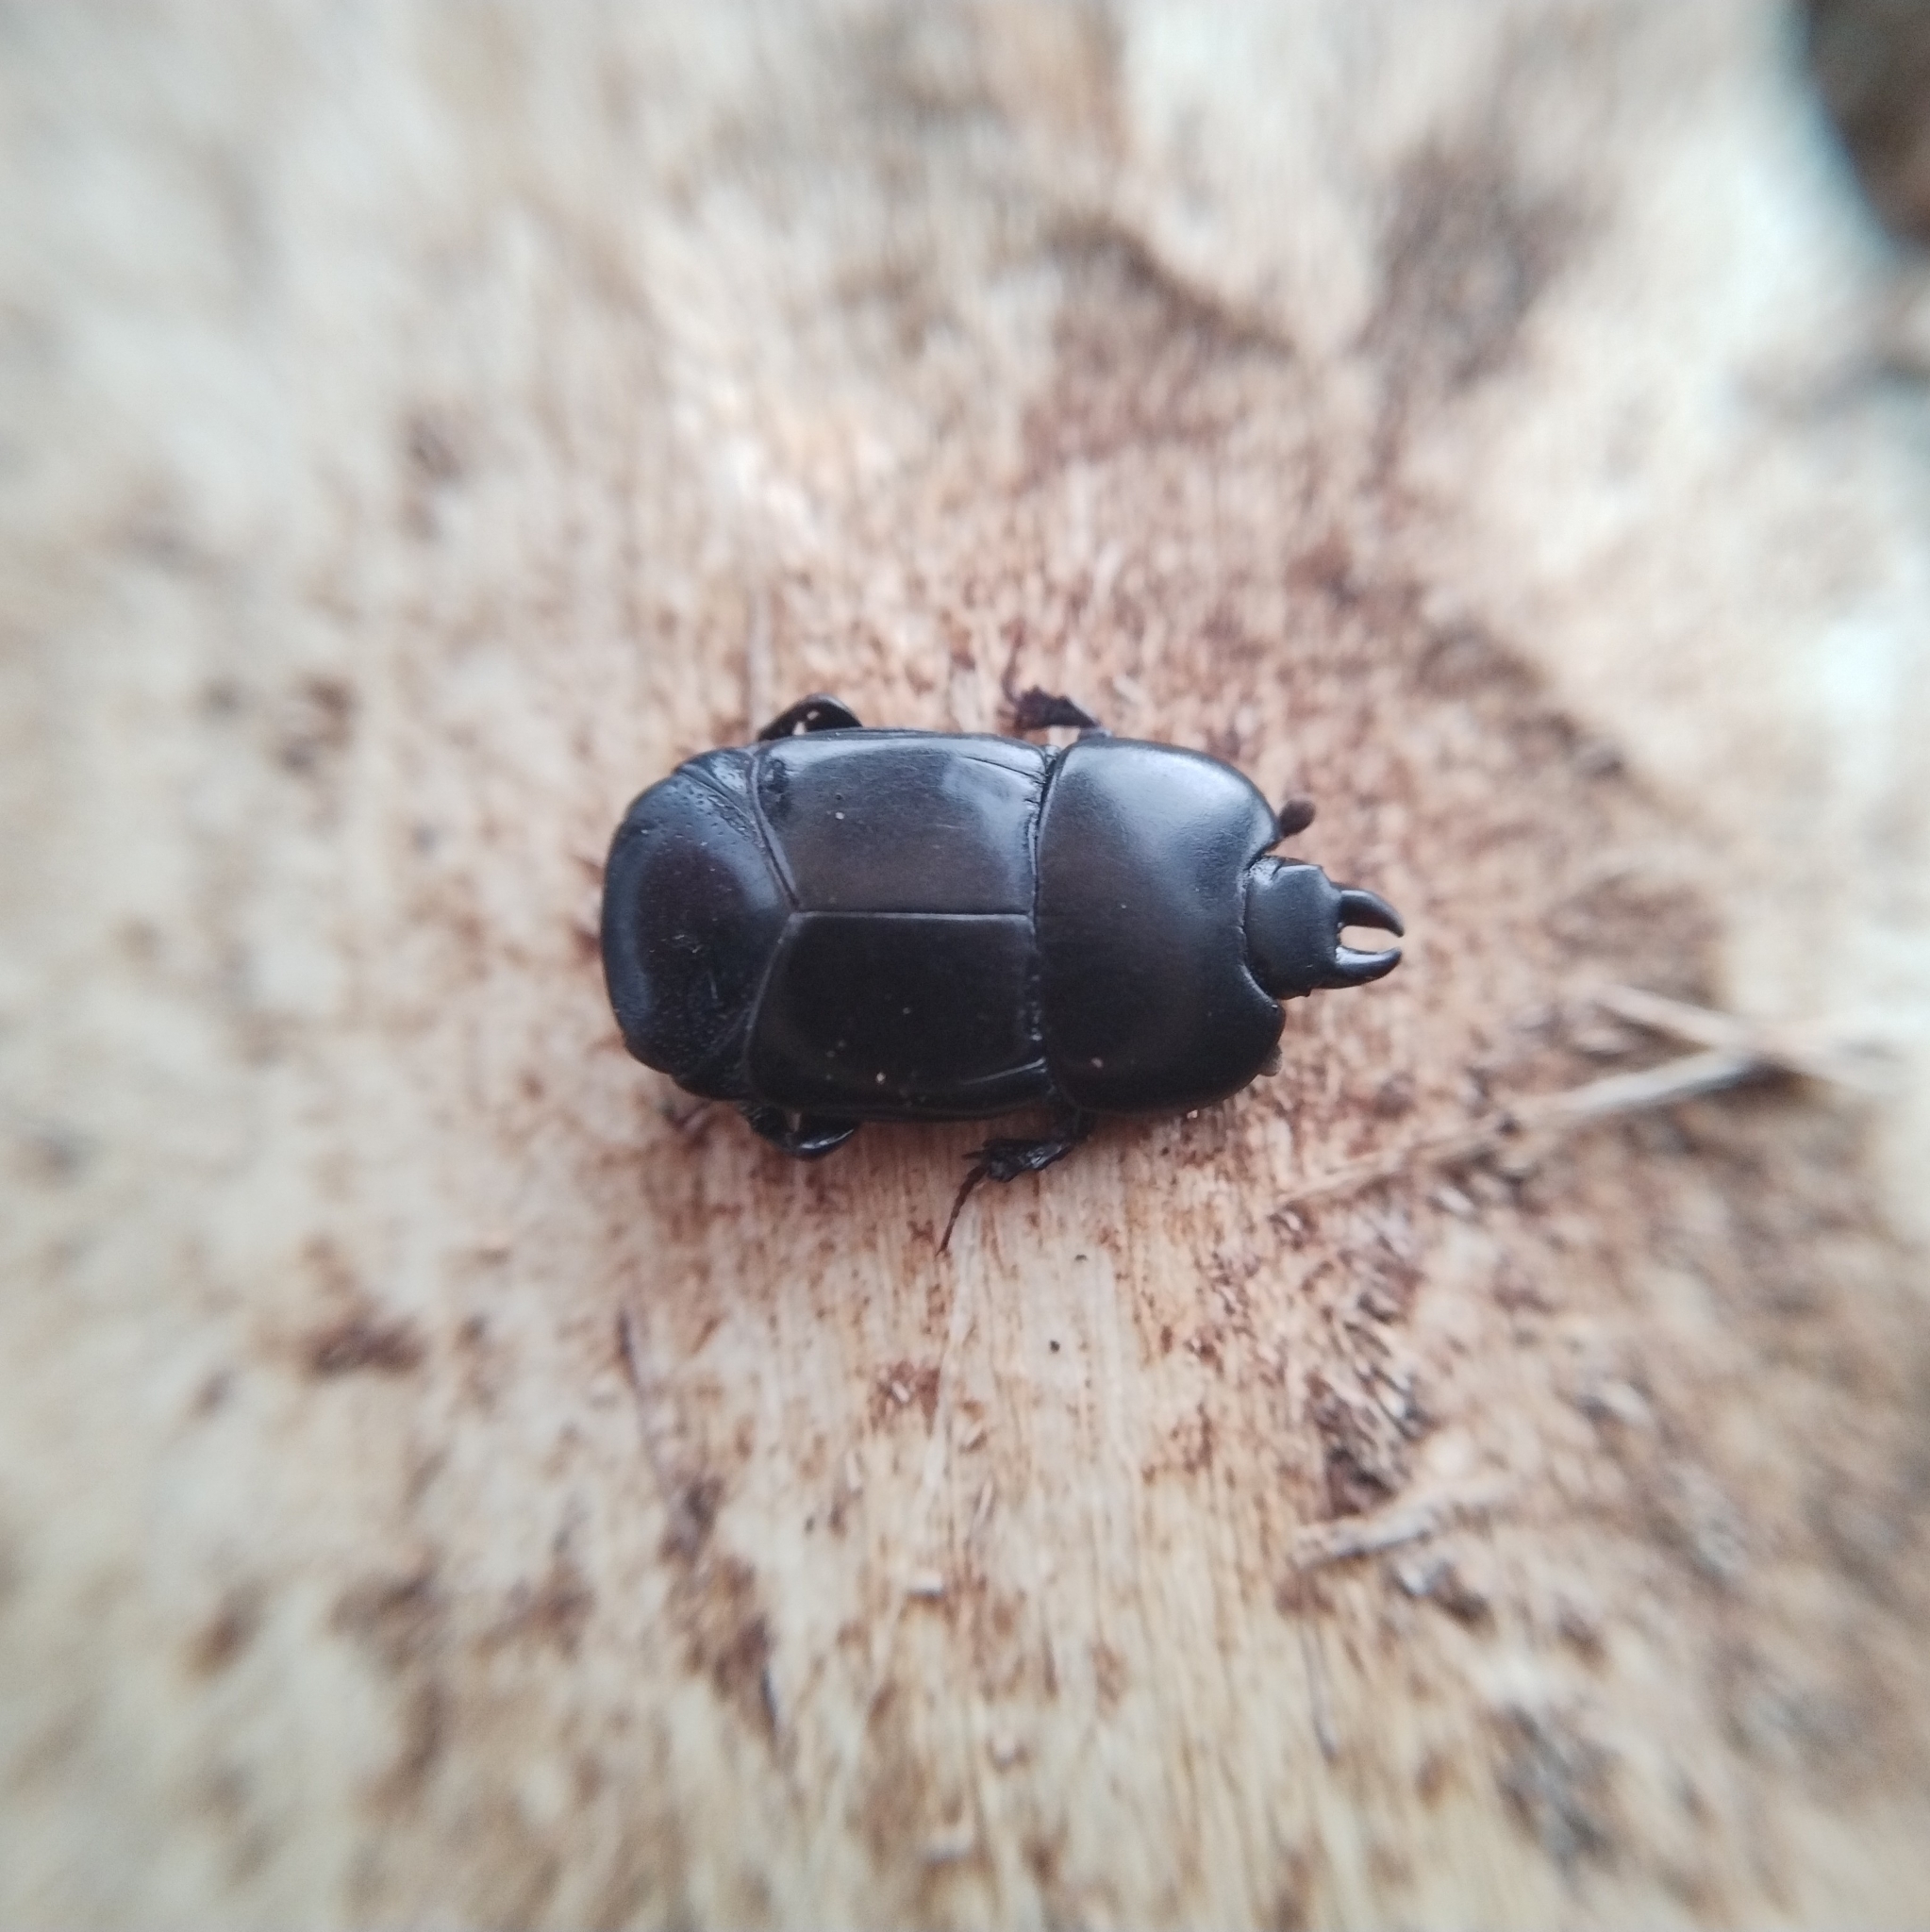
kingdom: Animalia
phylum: Arthropoda
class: Insecta
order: Coleoptera
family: Histeridae
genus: Hololepta
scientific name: Hololepta plana
